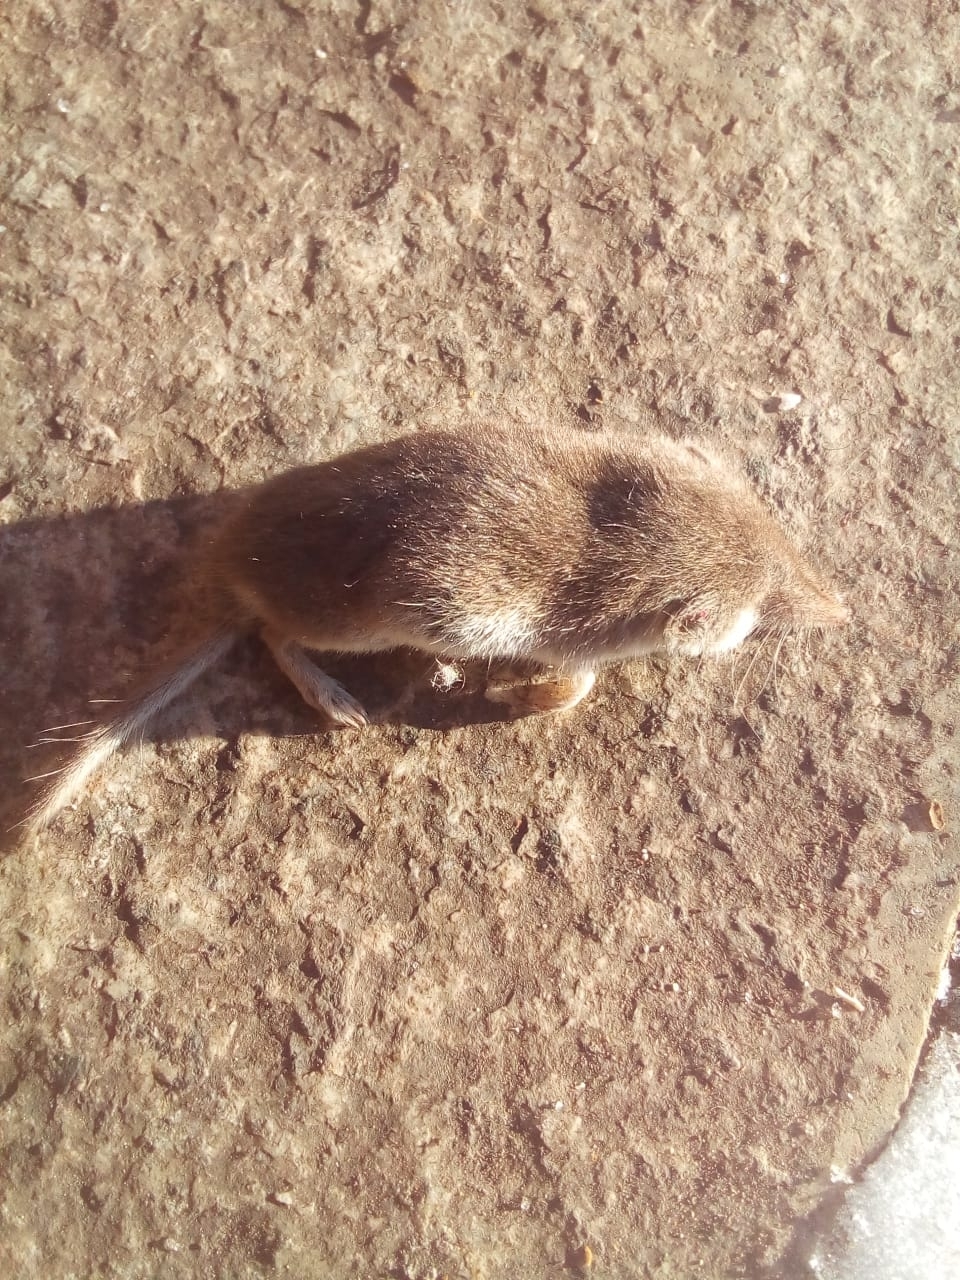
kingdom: Animalia
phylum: Chordata
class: Mammalia
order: Soricomorpha
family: Soricidae
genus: Crocidura
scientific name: Crocidura suaveolens
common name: Lesser white-toothed shrew
